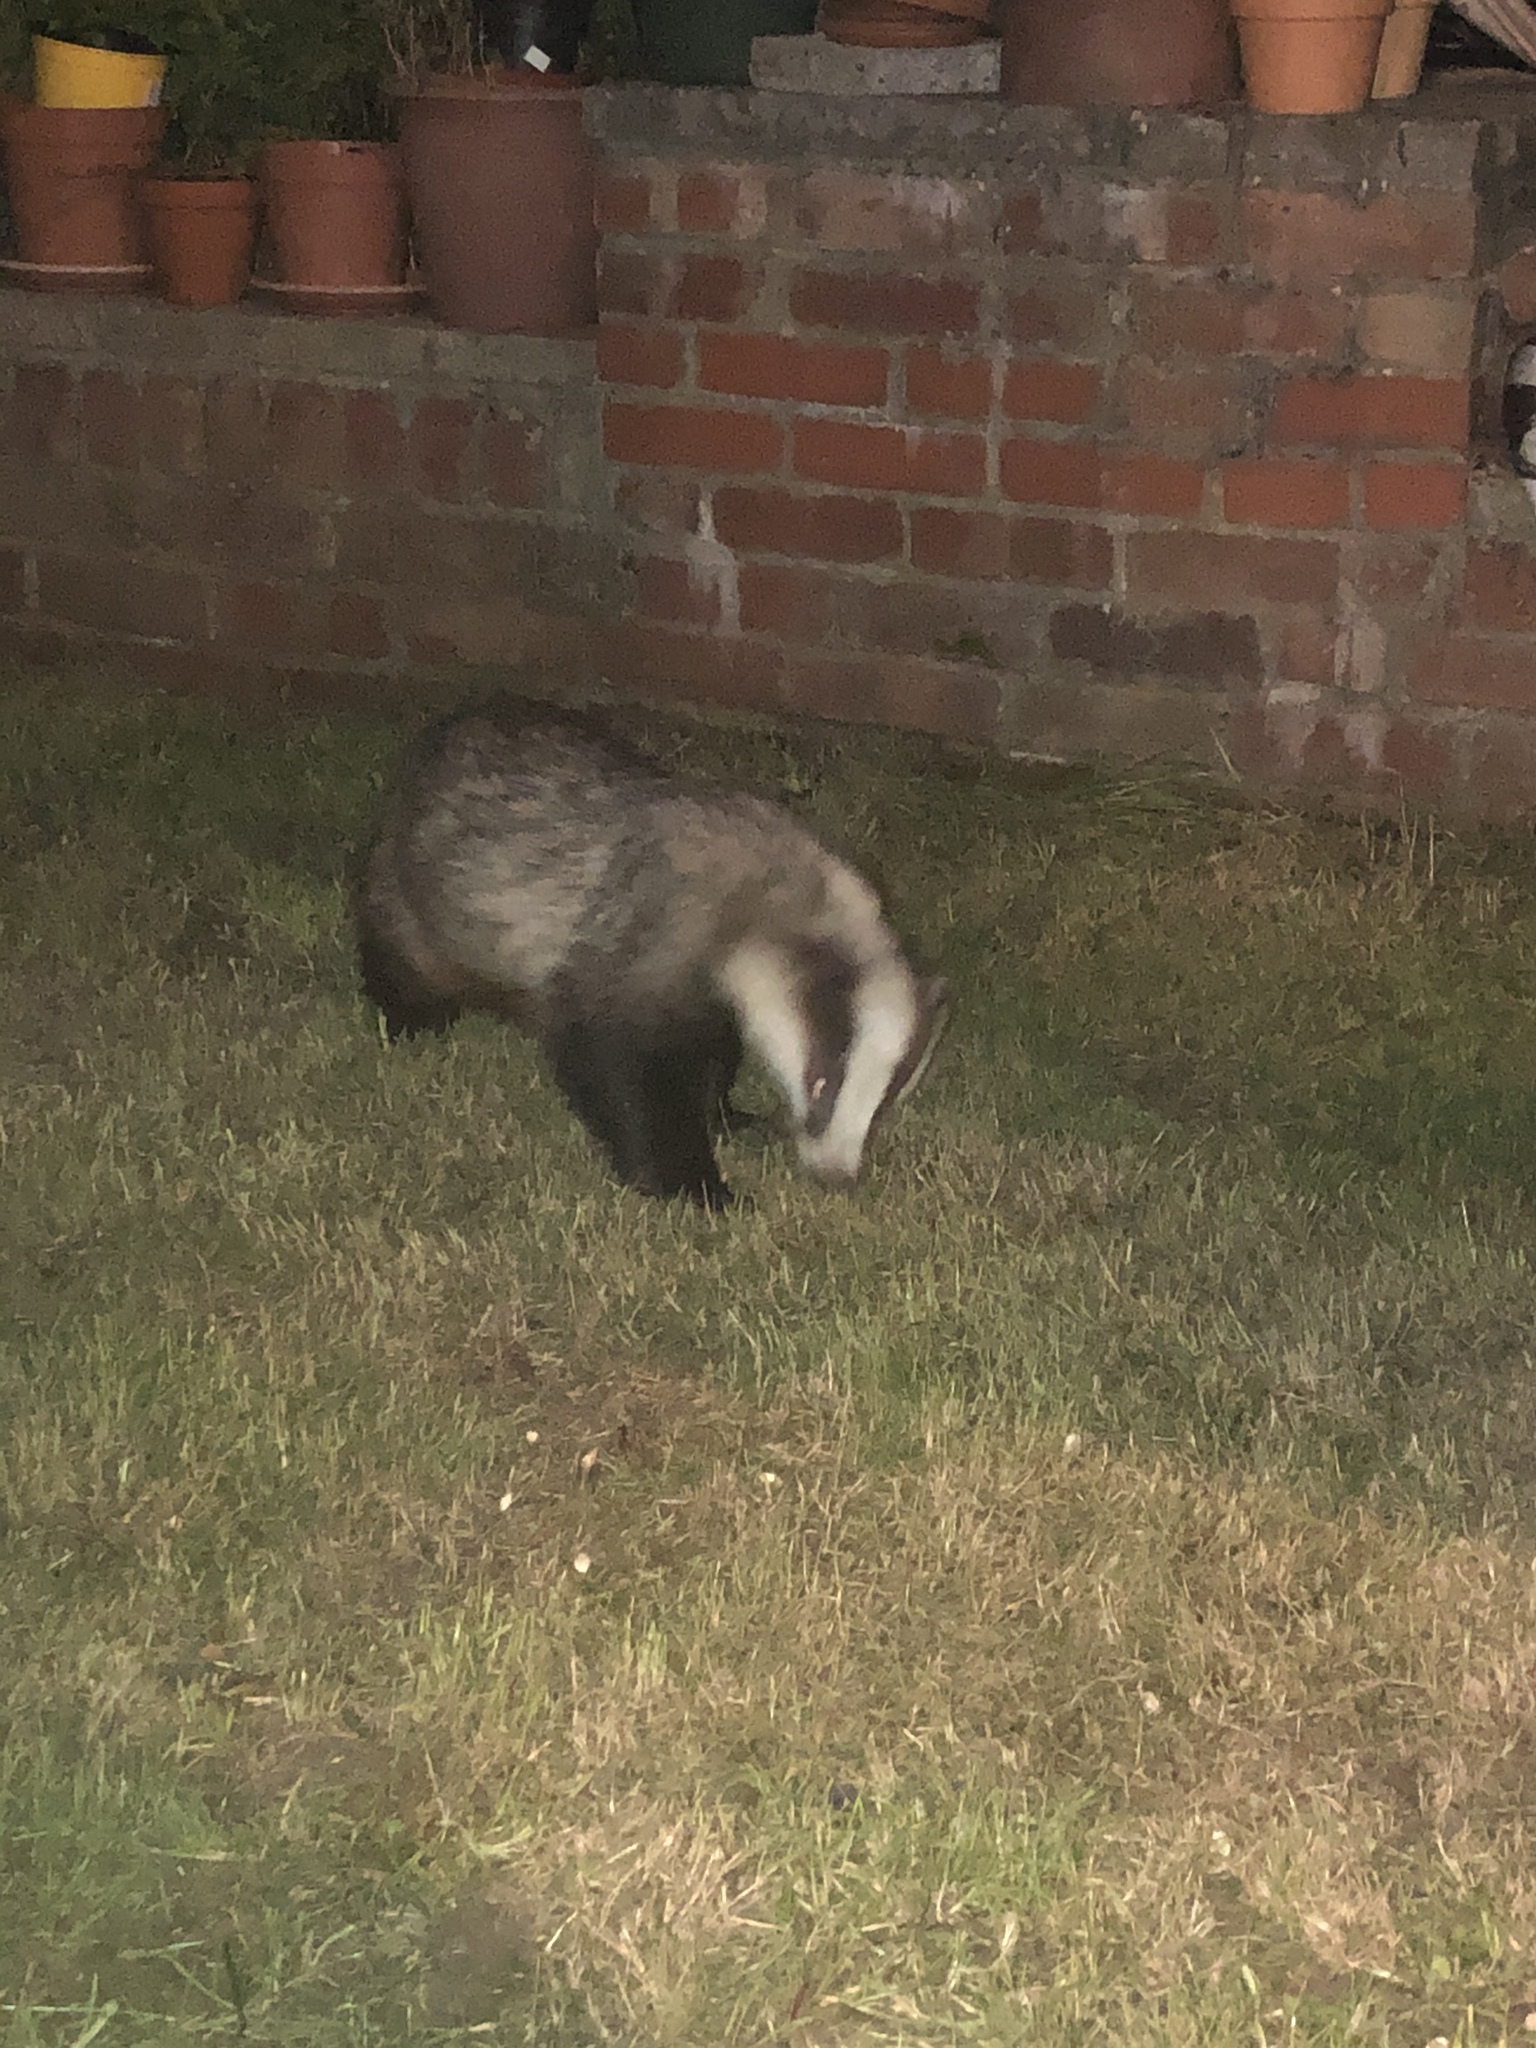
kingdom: Animalia
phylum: Chordata
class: Mammalia
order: Carnivora
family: Mustelidae
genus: Meles
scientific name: Meles meles
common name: Eurasian badger
